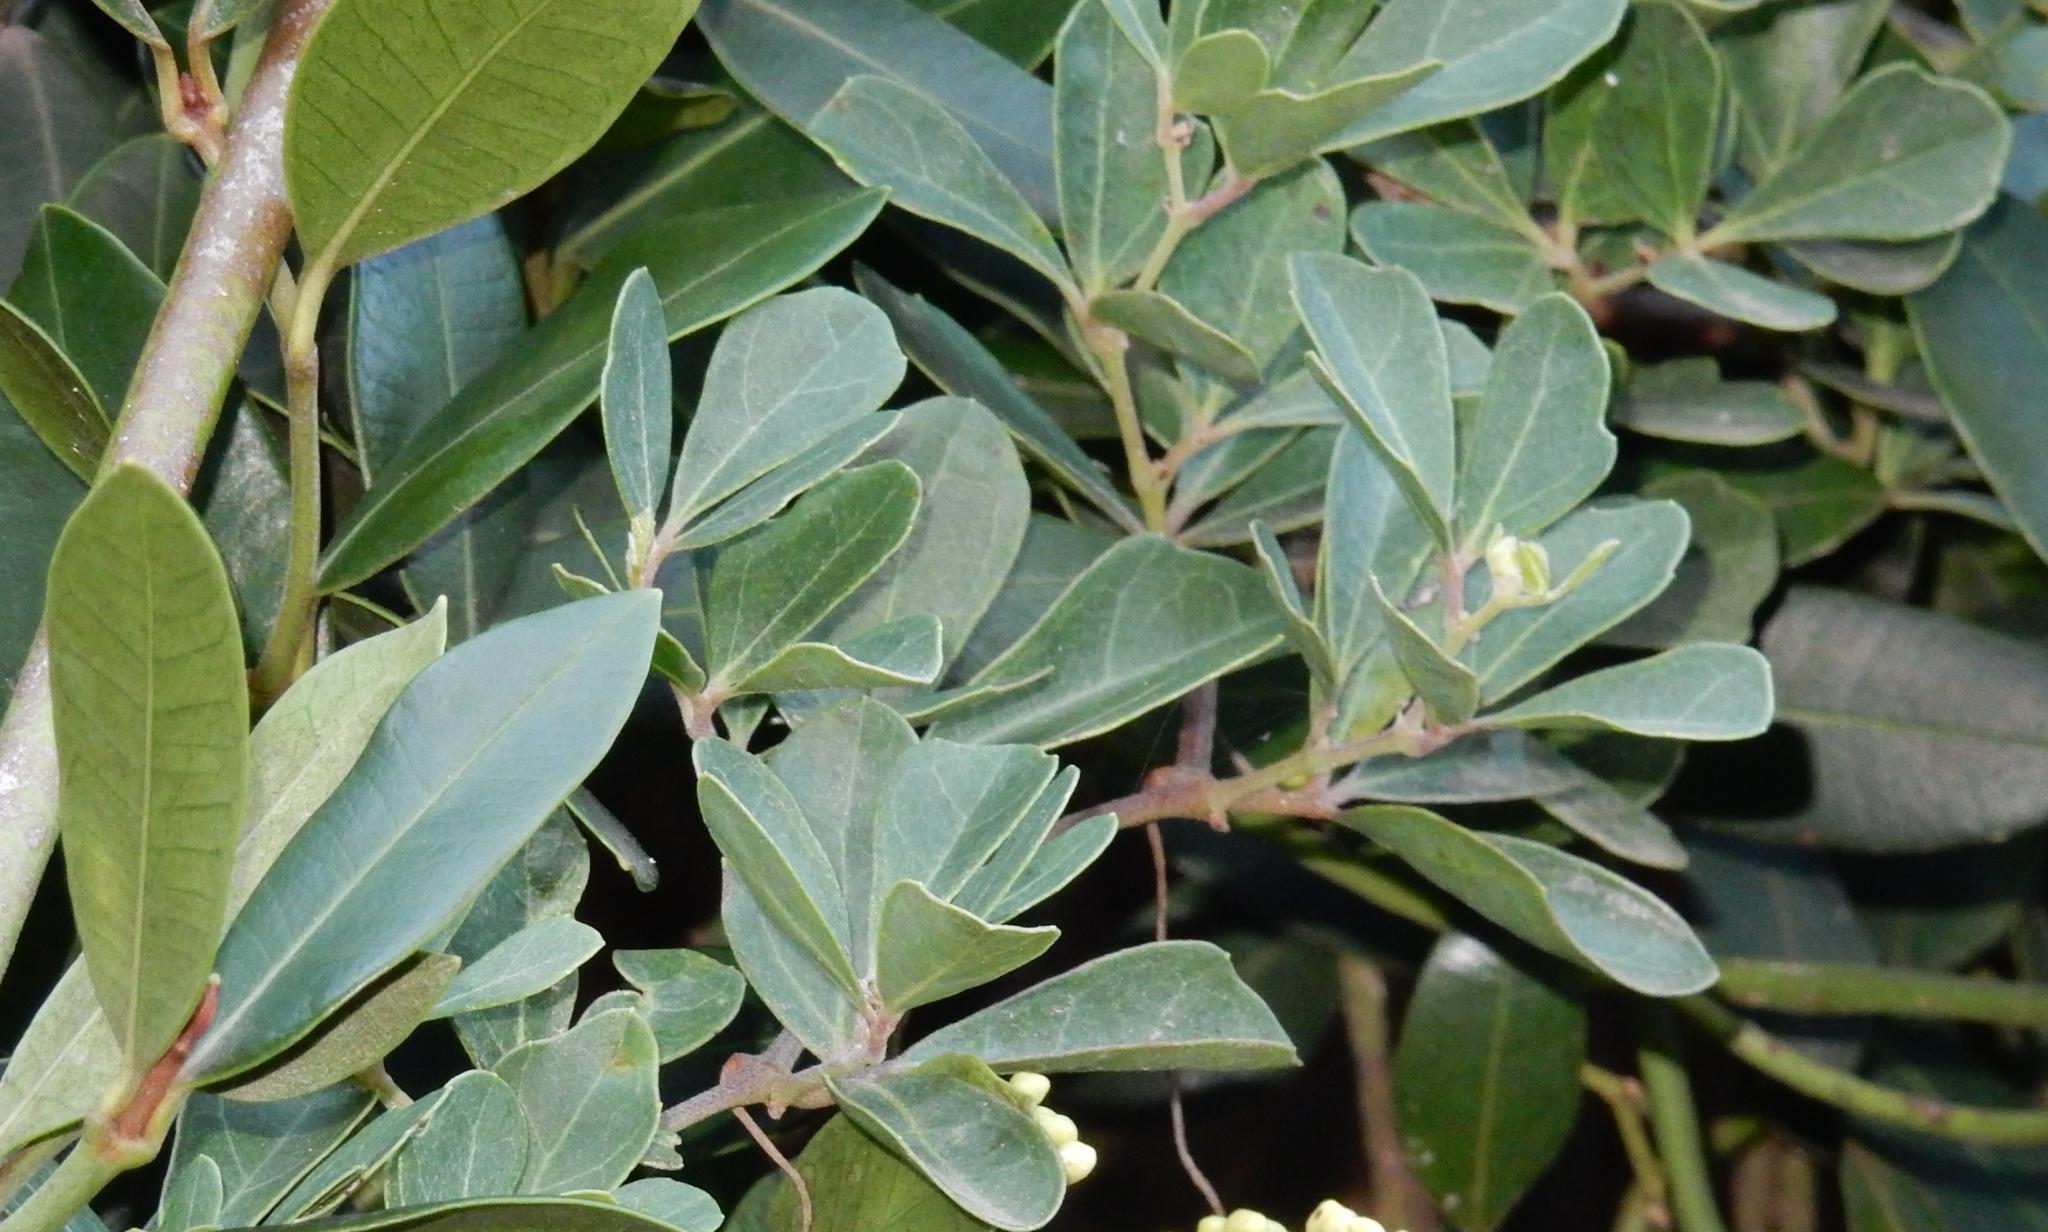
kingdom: Plantae
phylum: Tracheophyta
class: Magnoliopsida
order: Vitales
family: Vitaceae
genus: Rhoicissus
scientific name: Rhoicissus tridentata
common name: Common forest grape
